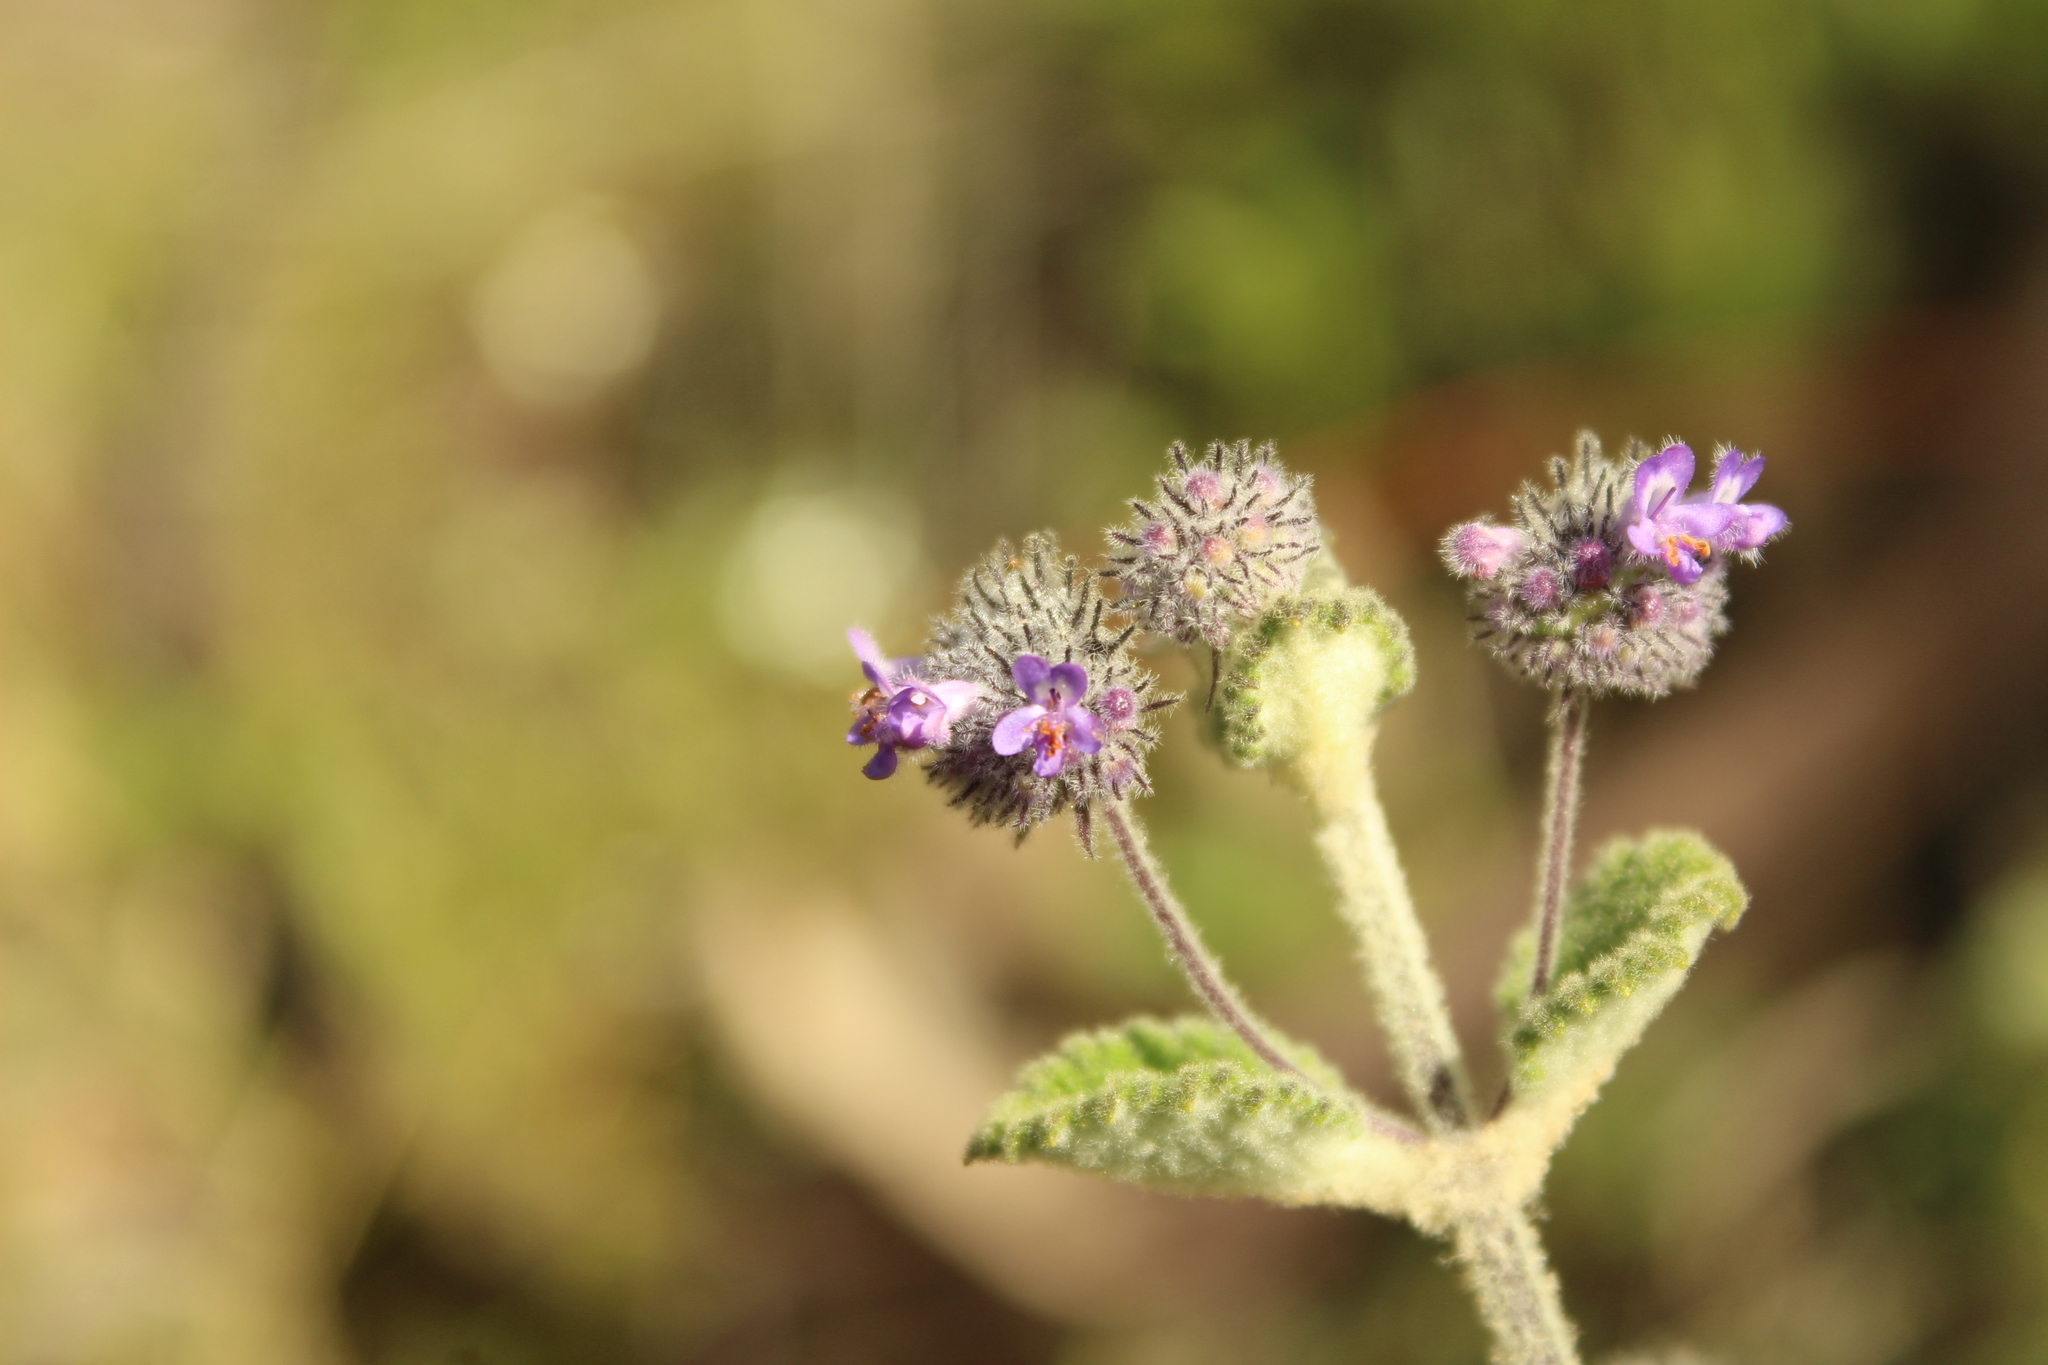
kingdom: Plantae
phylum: Tracheophyta
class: Magnoliopsida
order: Lamiales
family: Lamiaceae
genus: Mesosphaerum
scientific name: Mesosphaerum perbullatum
